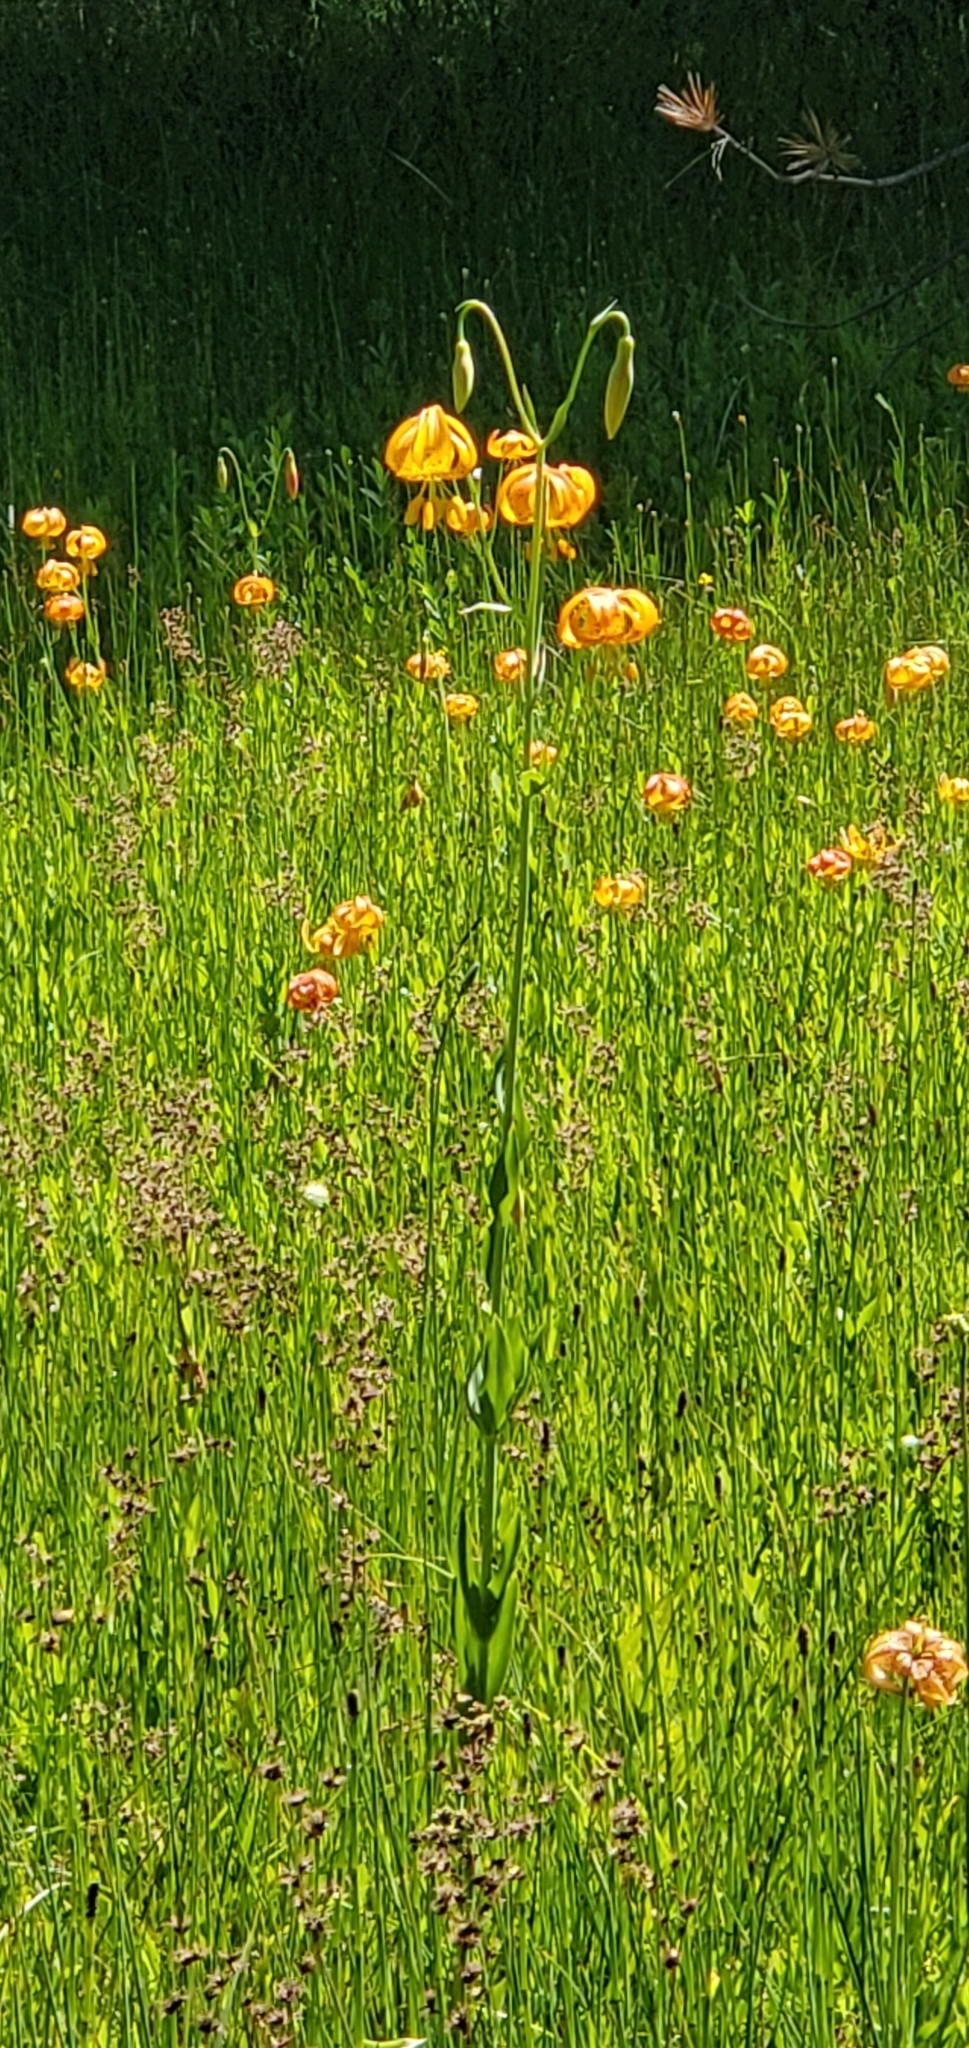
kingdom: Plantae
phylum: Tracheophyta
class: Liliopsida
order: Liliales
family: Liliaceae
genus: Lilium
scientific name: Lilium pardalinum
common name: Panther lily
